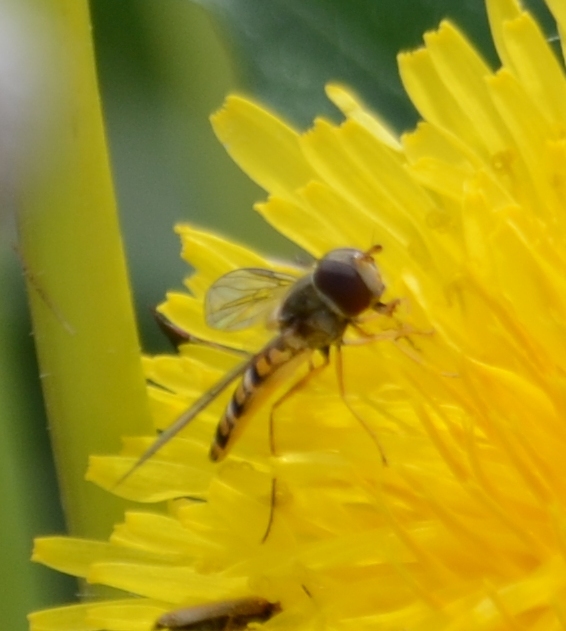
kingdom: Animalia
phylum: Arthropoda
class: Insecta
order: Diptera
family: Syrphidae
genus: Episyrphus
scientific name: Episyrphus balteatus
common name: Marmalade hoverfly
